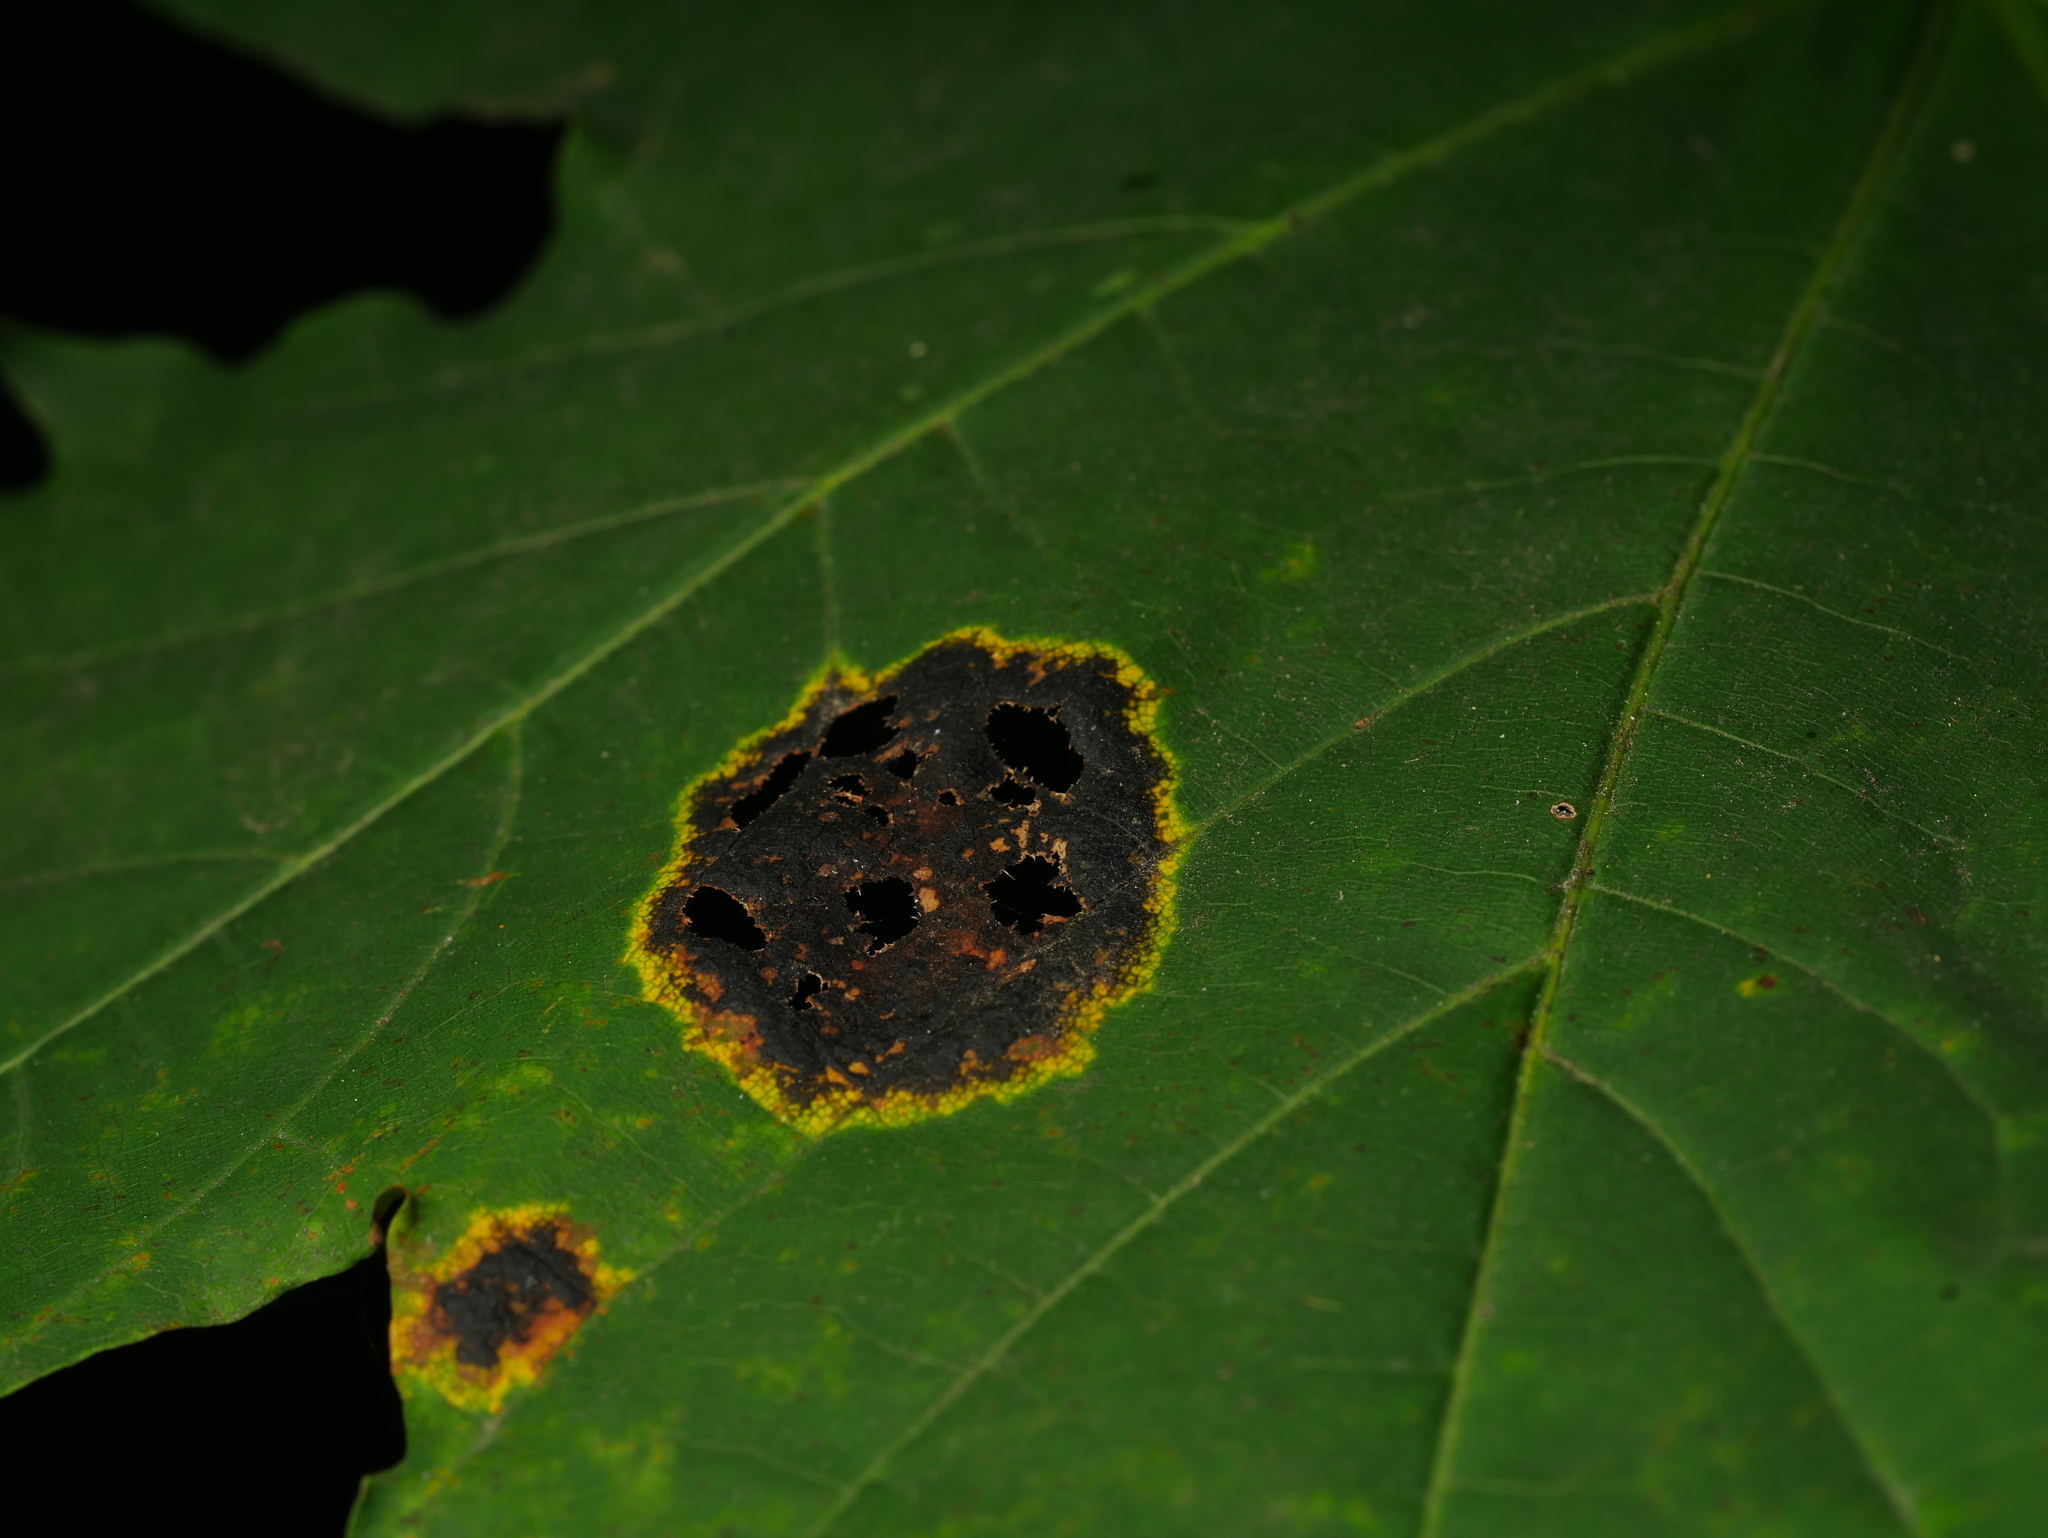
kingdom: Fungi
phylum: Ascomycota
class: Leotiomycetes
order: Rhytismatales
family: Rhytismataceae
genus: Rhytisma
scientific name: Rhytisma acerinum
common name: European tar spot
